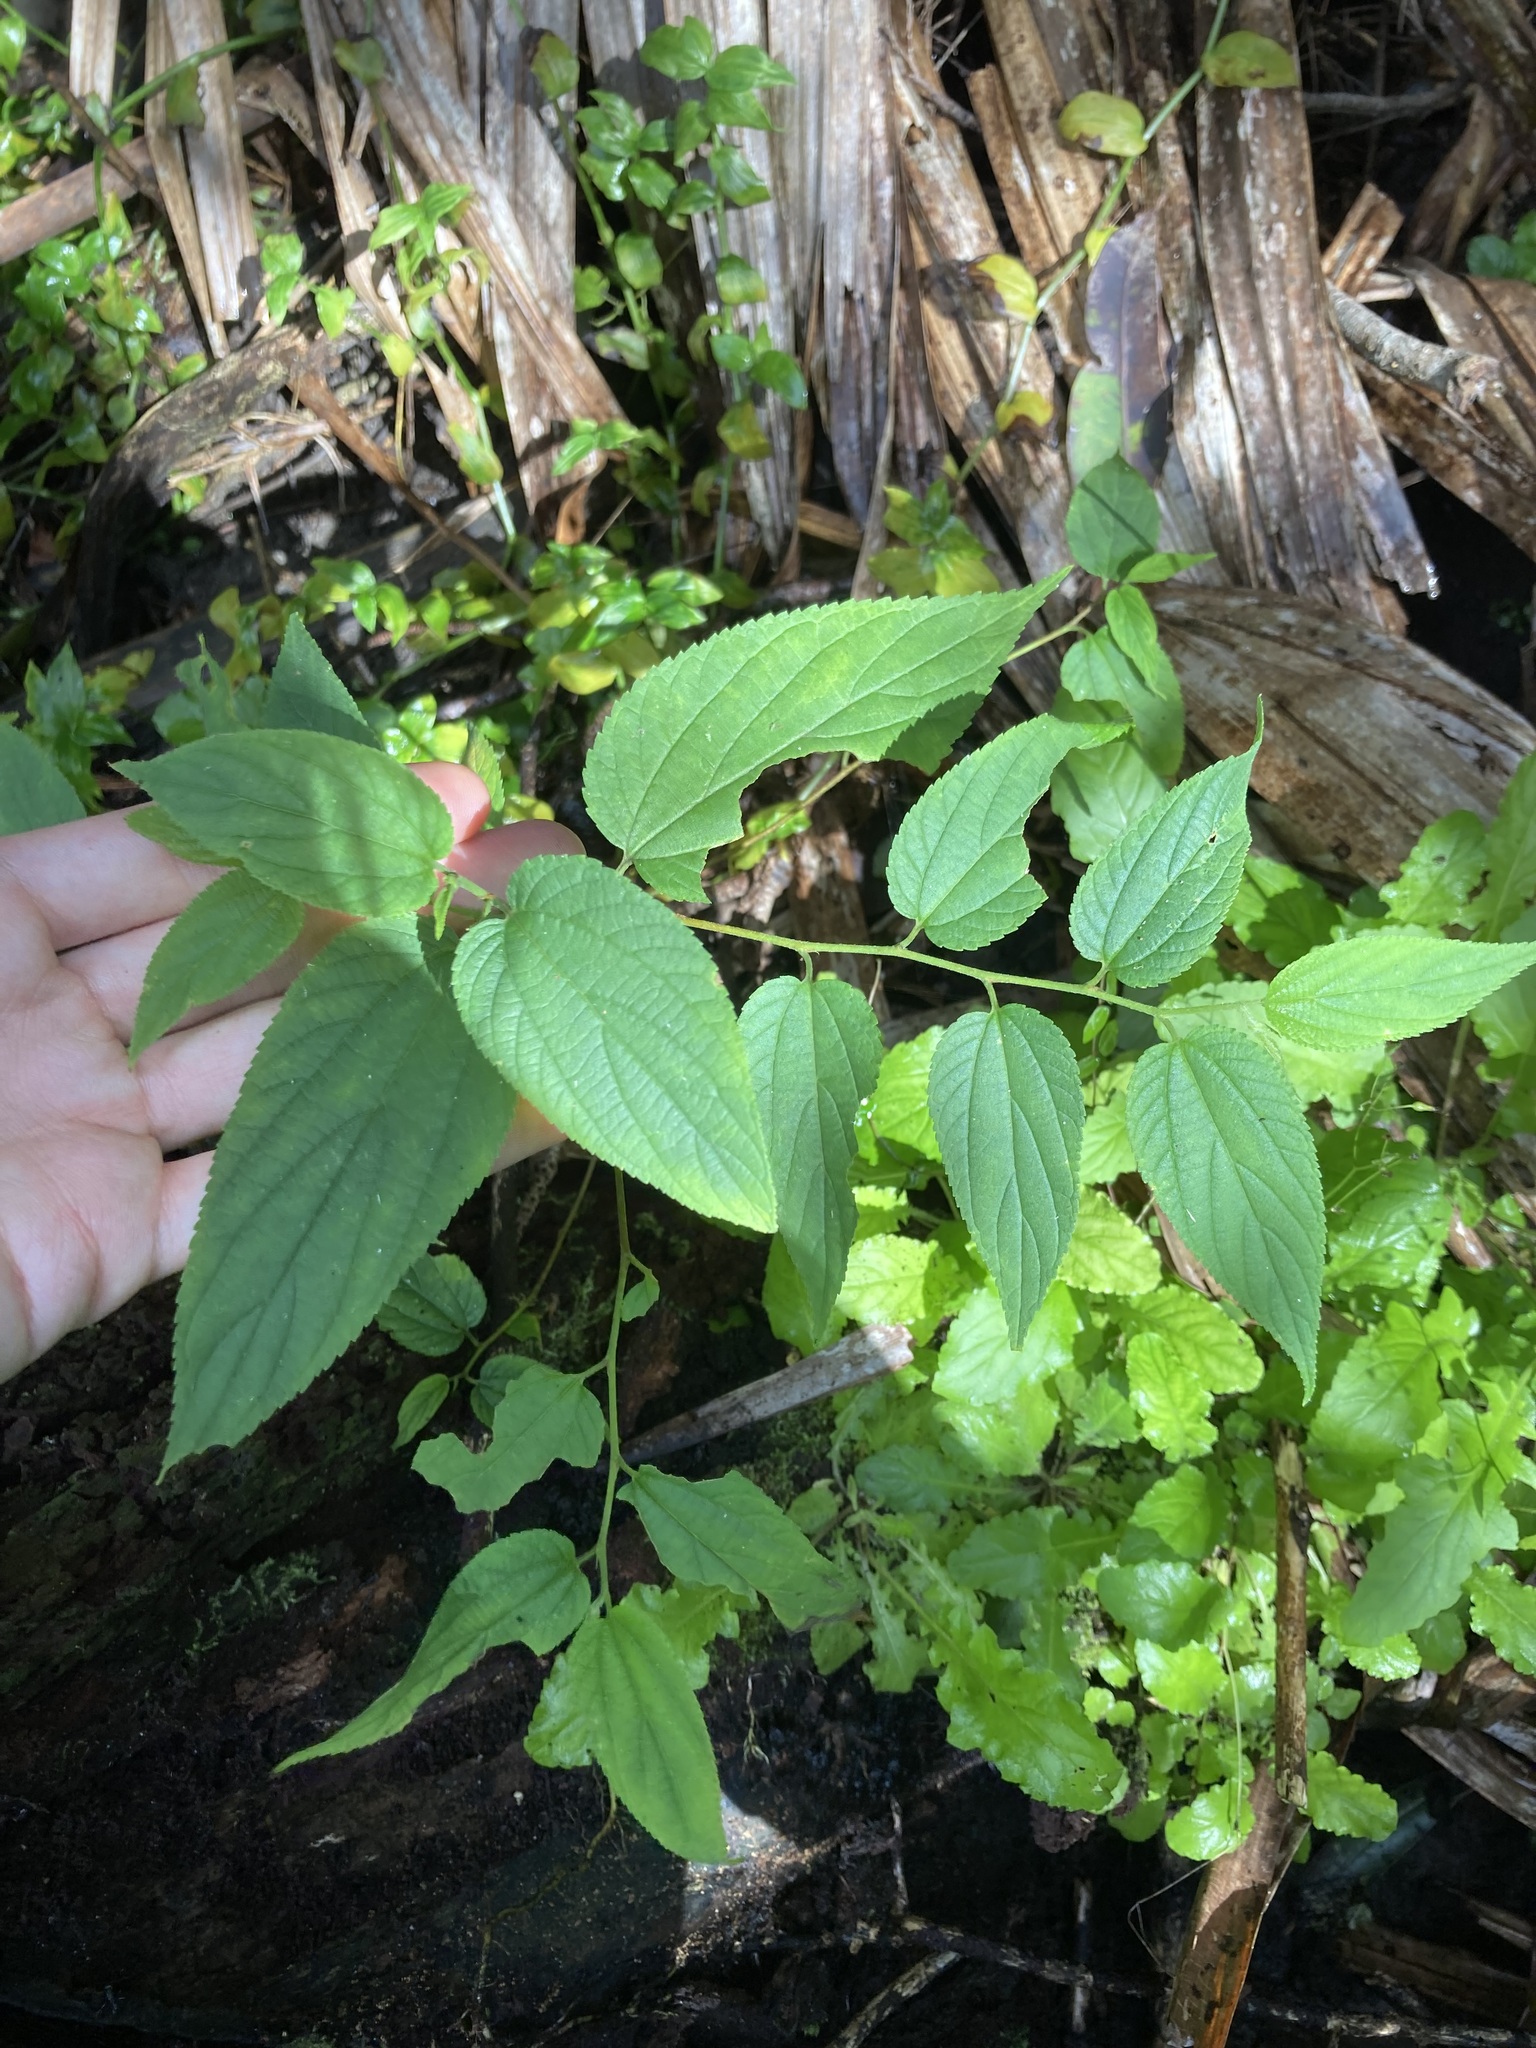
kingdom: Plantae
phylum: Tracheophyta
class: Magnoliopsida
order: Rosales
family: Cannabaceae
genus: Trema
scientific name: Trema tomentosum
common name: Peach-leaf-poisonbush
